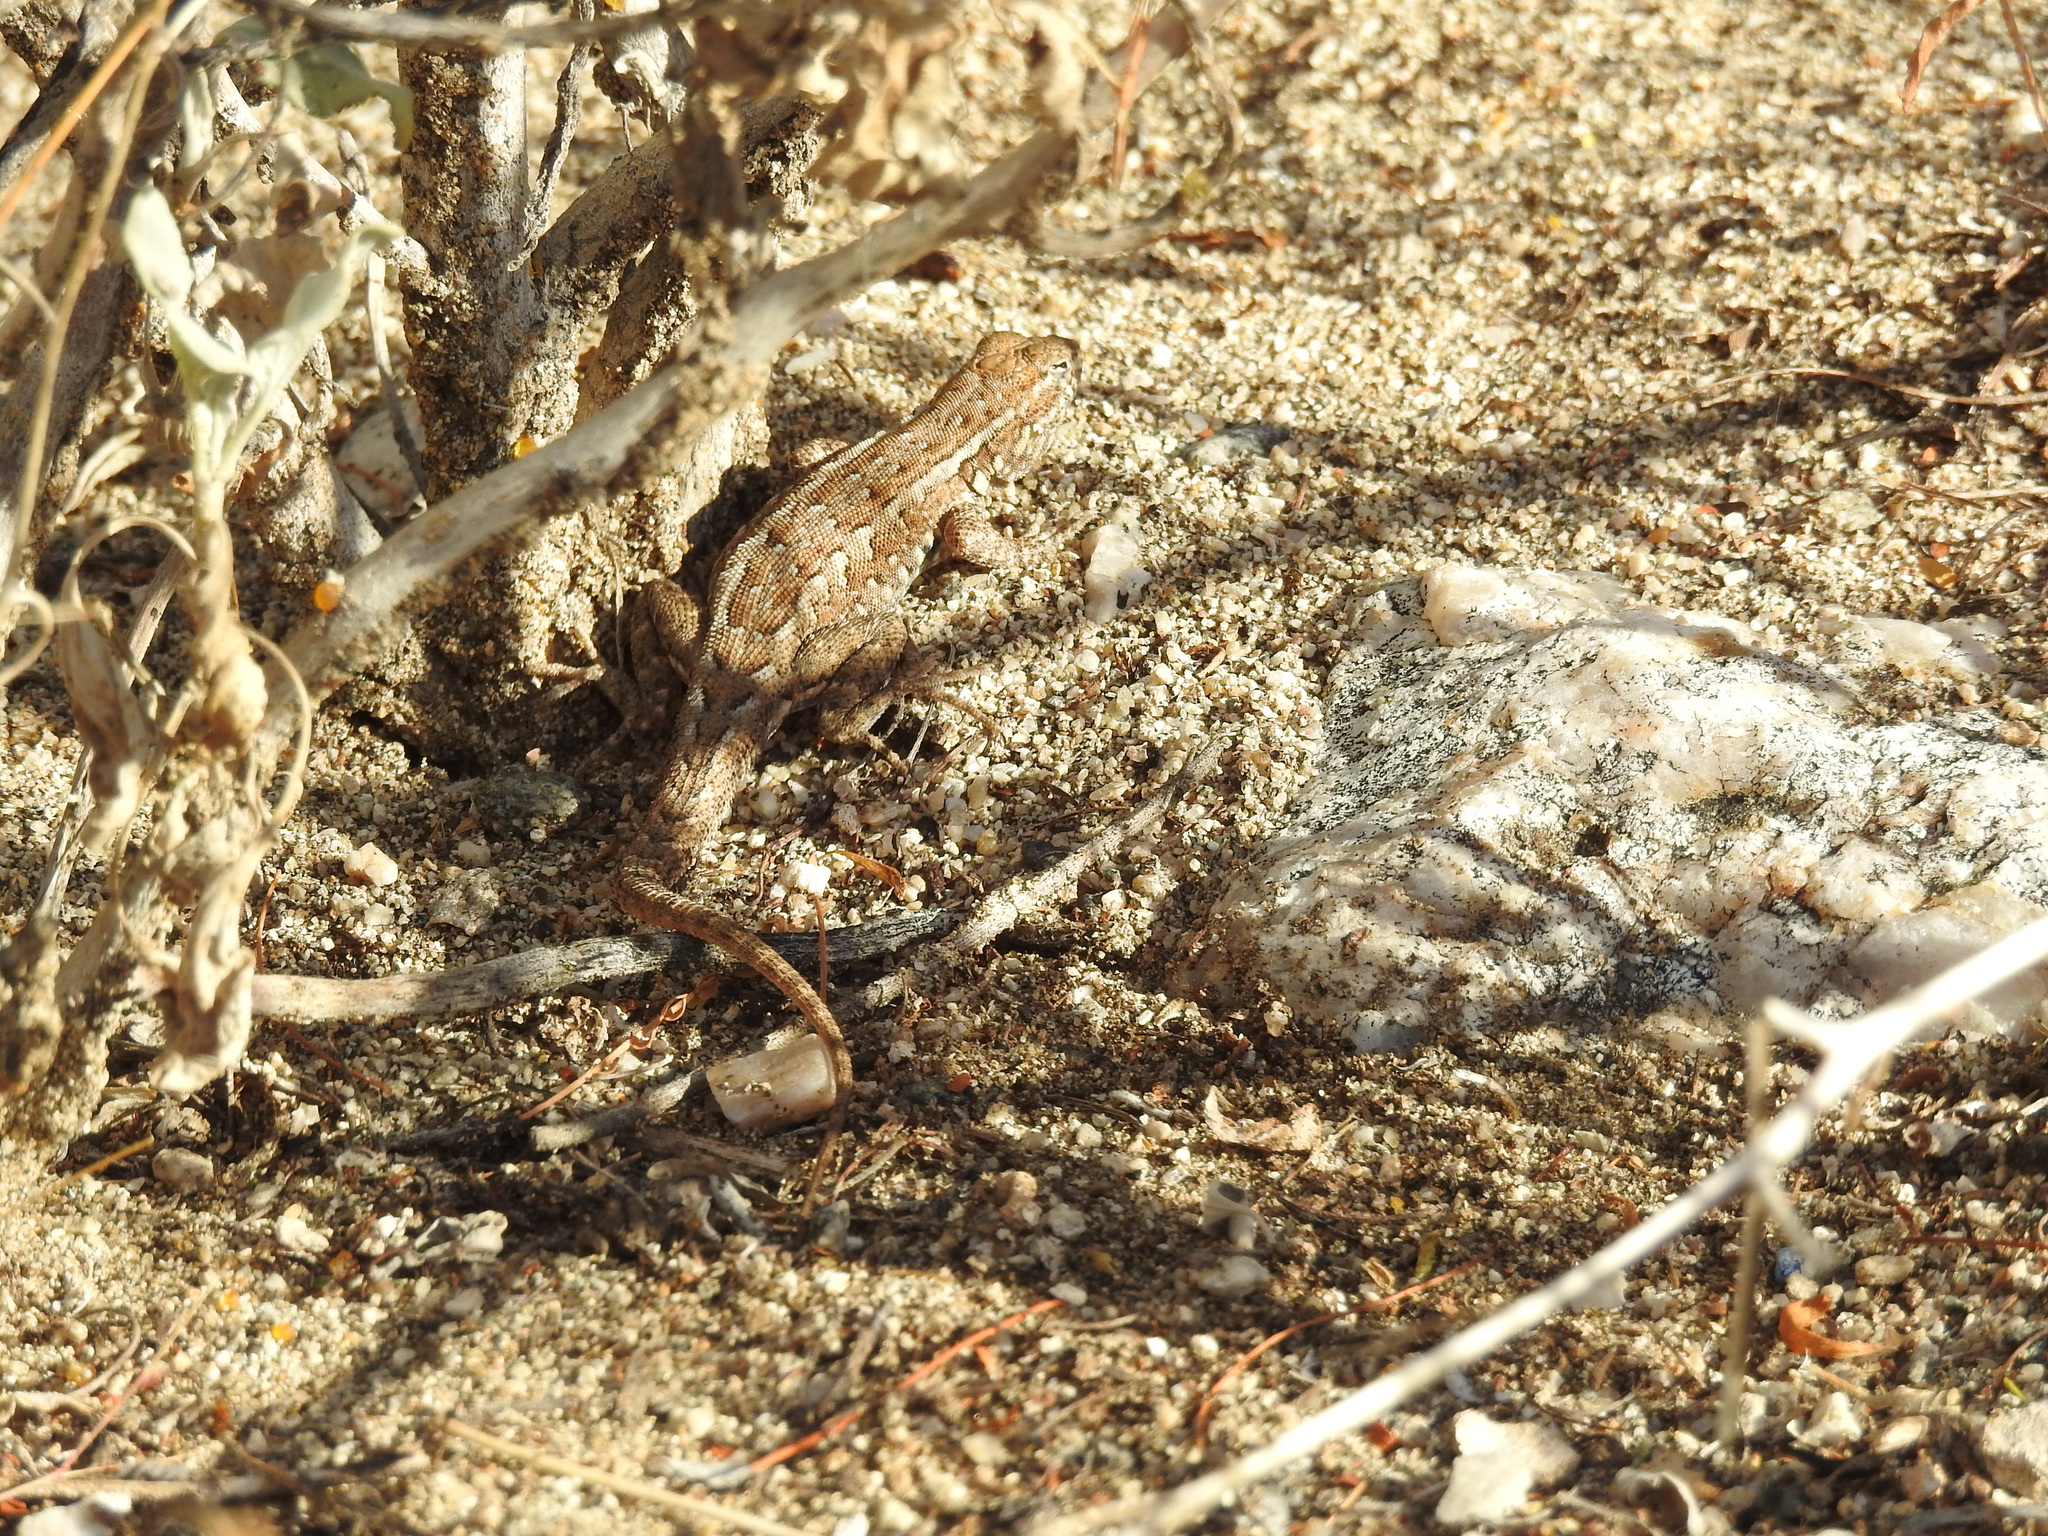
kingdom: Animalia
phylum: Chordata
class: Squamata
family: Phrynosomatidae
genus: Uta
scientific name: Uta stansburiana
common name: Side-blotched lizard
